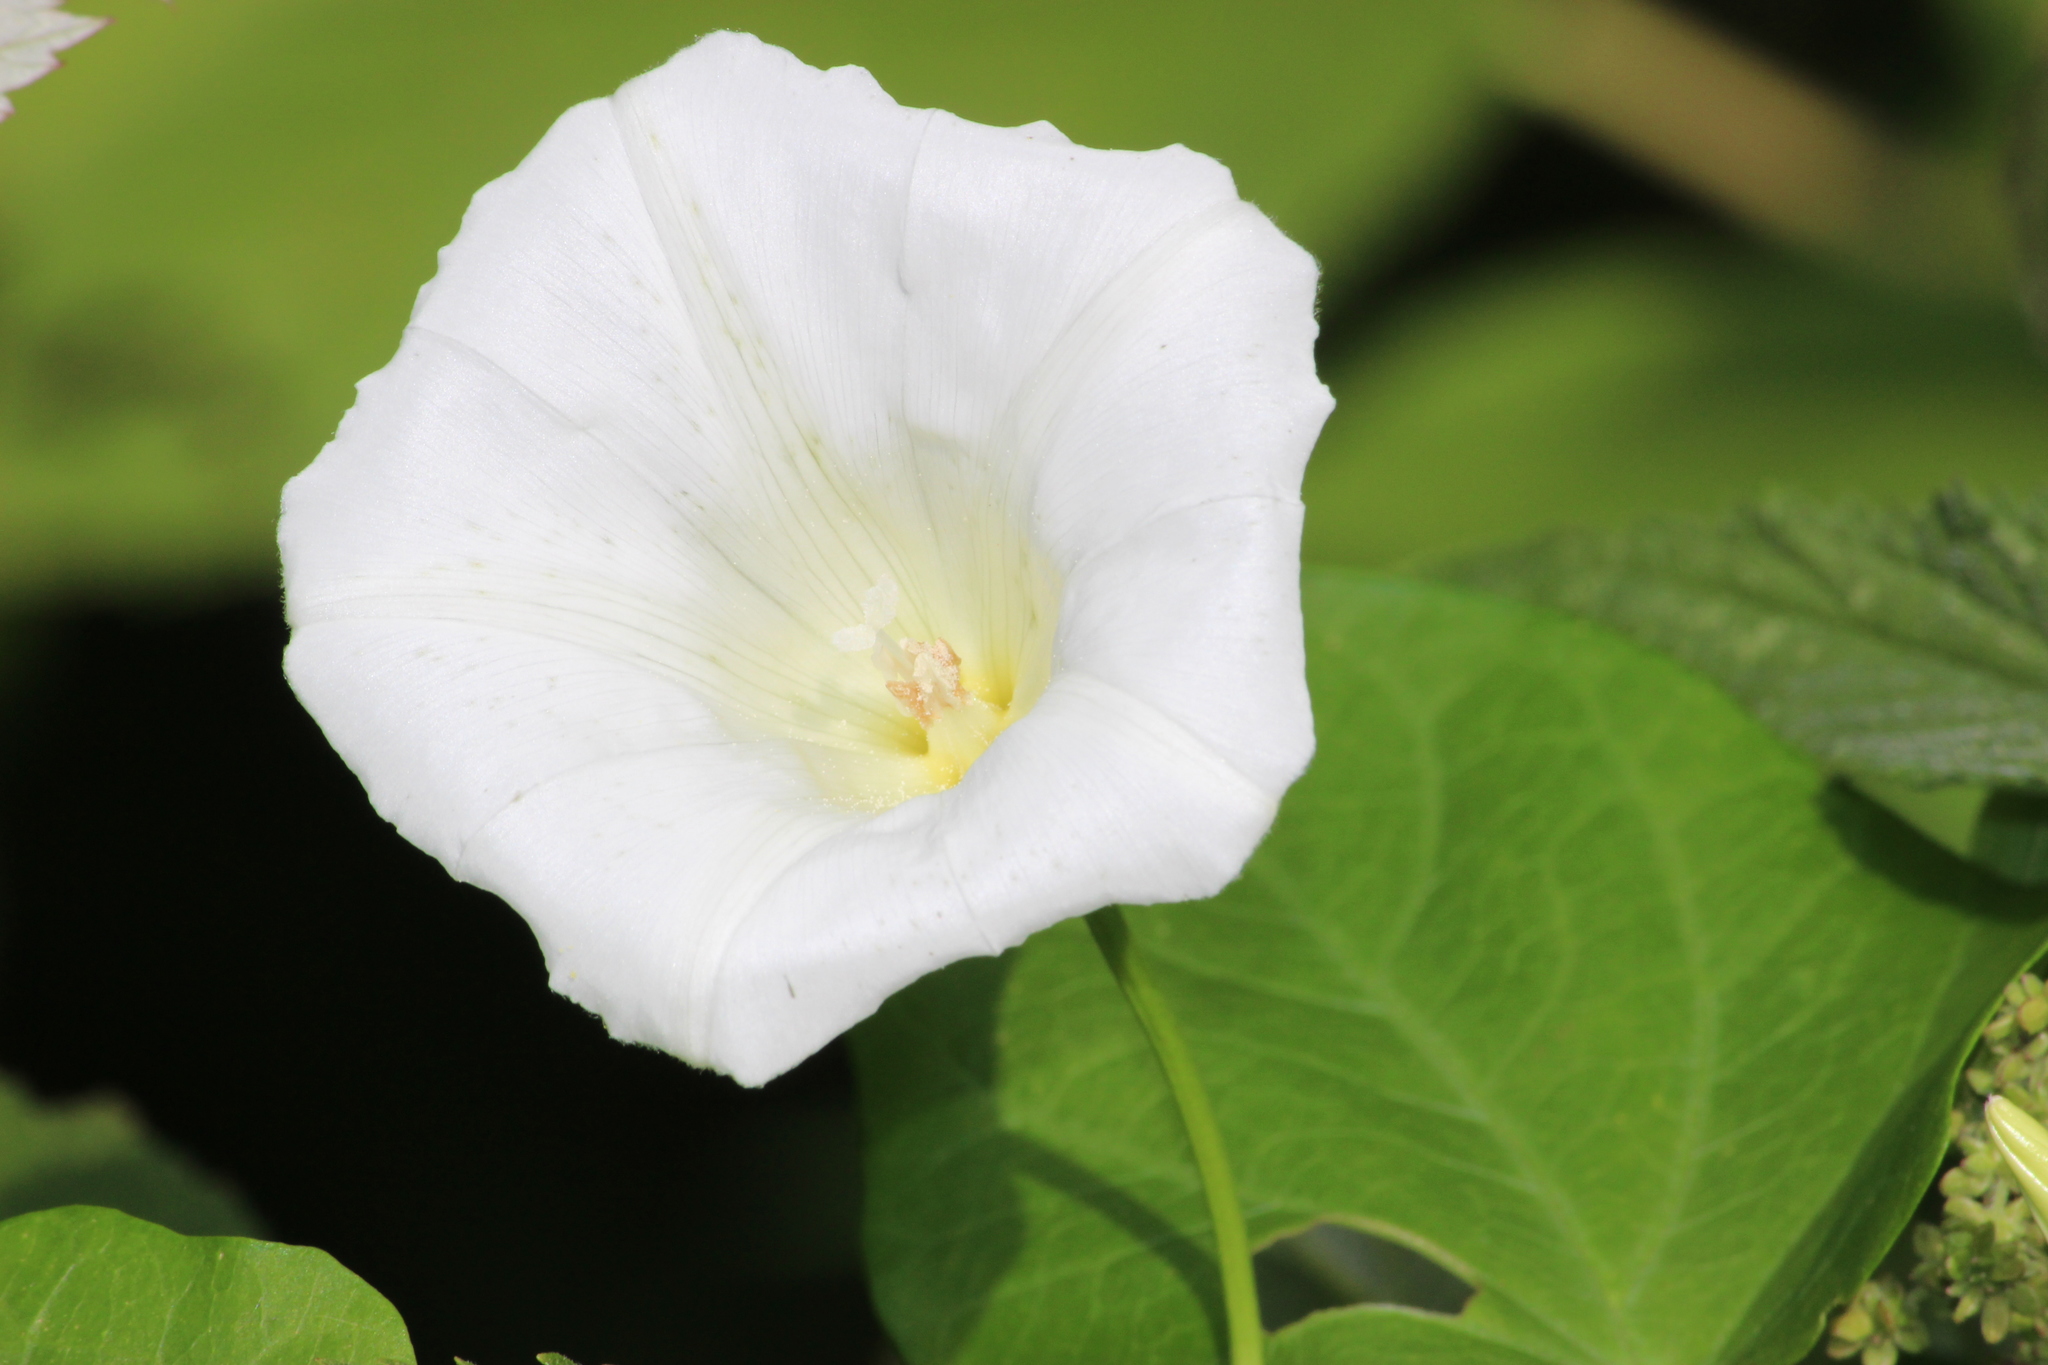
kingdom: Plantae
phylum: Tracheophyta
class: Magnoliopsida
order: Solanales
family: Convolvulaceae
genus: Calystegia
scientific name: Calystegia sepium
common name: Hedge bindweed
